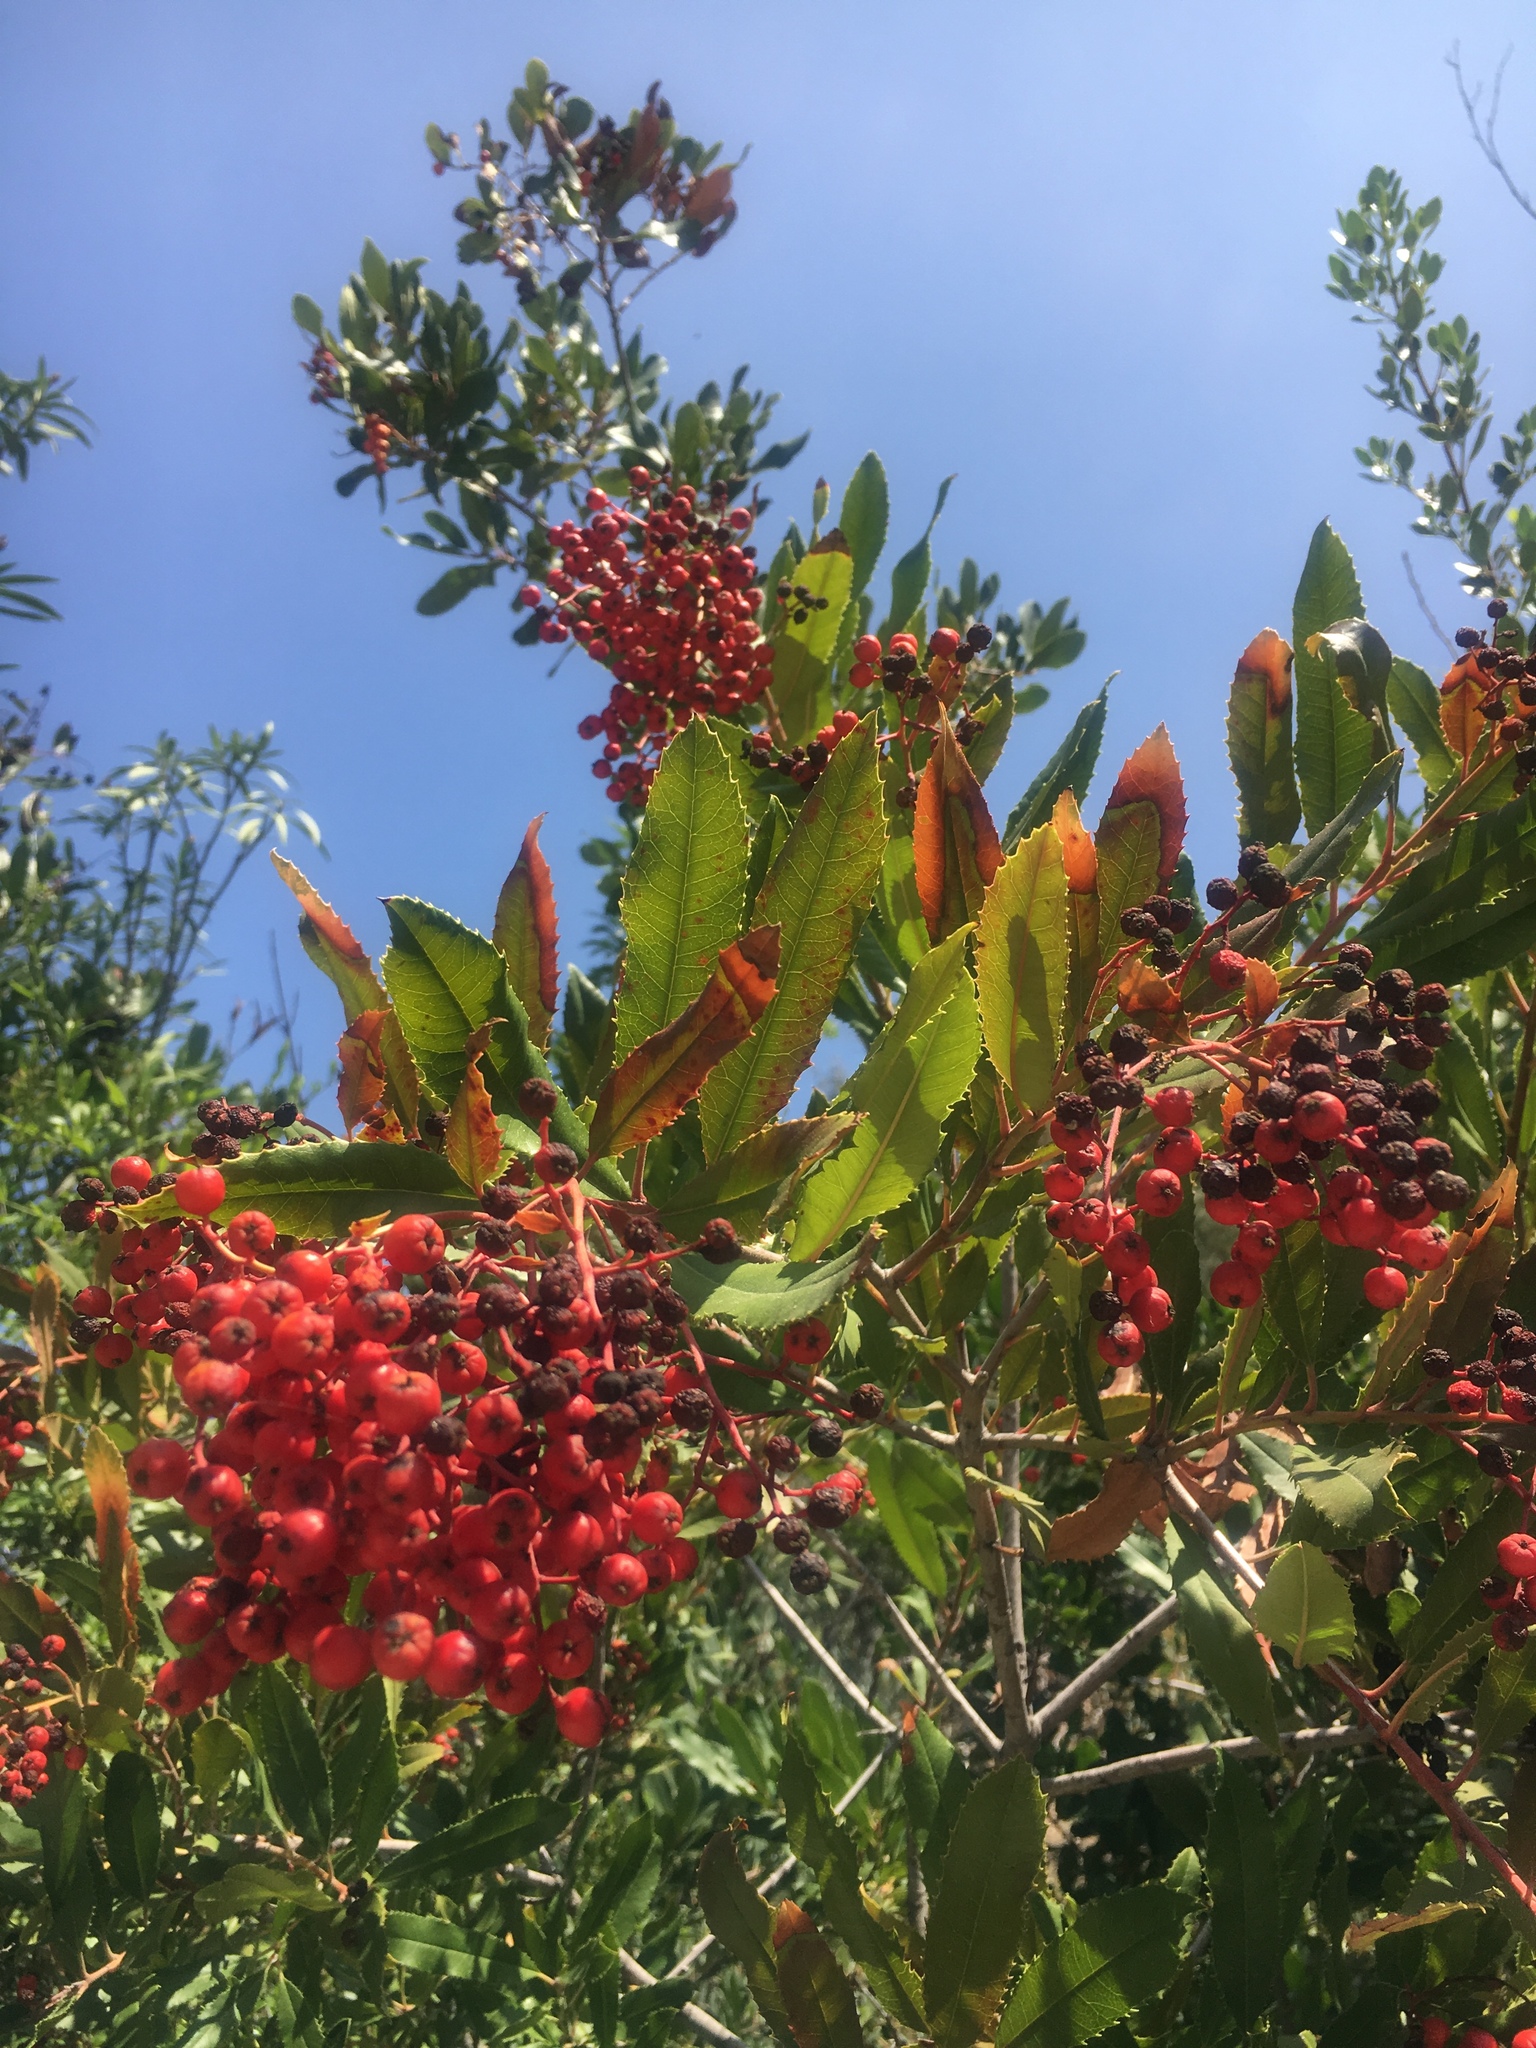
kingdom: Plantae
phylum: Tracheophyta
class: Magnoliopsida
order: Rosales
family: Rosaceae
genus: Heteromeles
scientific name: Heteromeles arbutifolia
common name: California-holly
